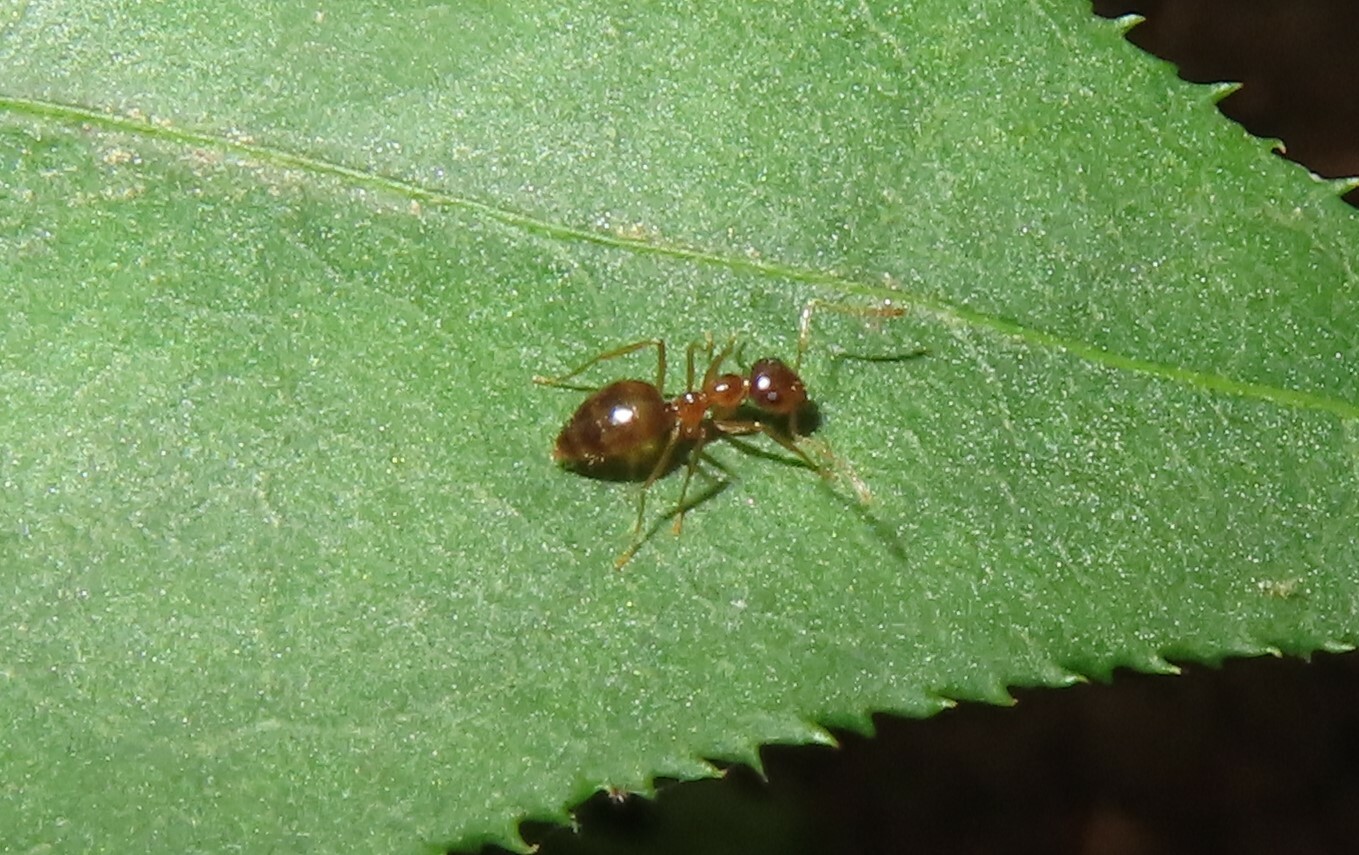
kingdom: Animalia
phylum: Arthropoda
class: Insecta
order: Hymenoptera
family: Formicidae
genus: Prenolepis
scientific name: Prenolepis imparis
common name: Small honey ant
